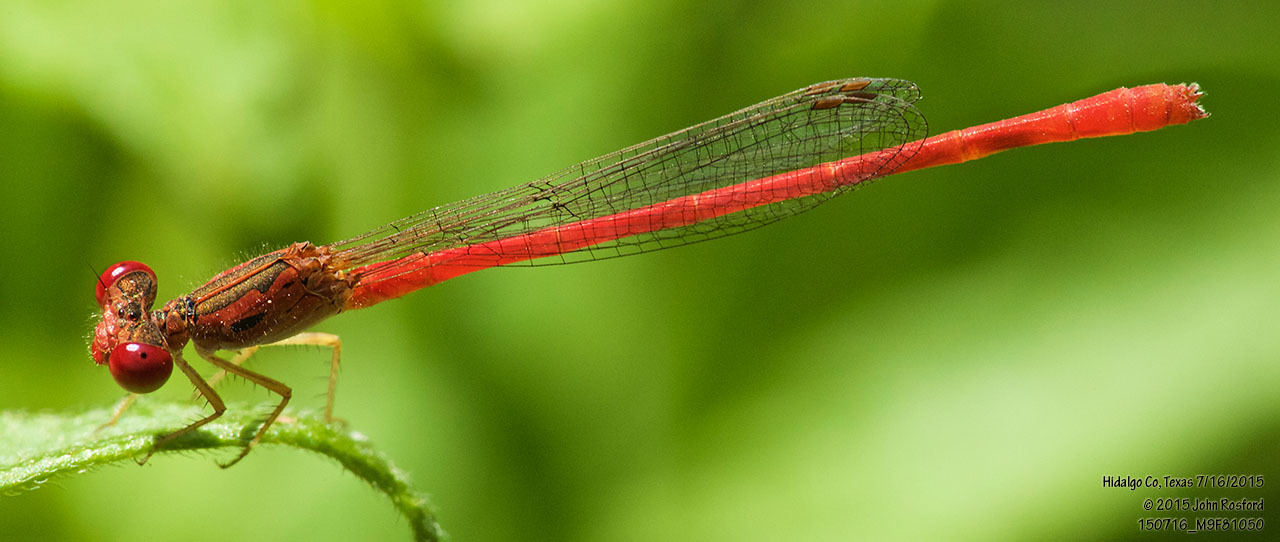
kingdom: Animalia
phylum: Arthropoda
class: Insecta
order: Odonata
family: Coenagrionidae
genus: Telebasis
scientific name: Telebasis salva
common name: Desert firetail
